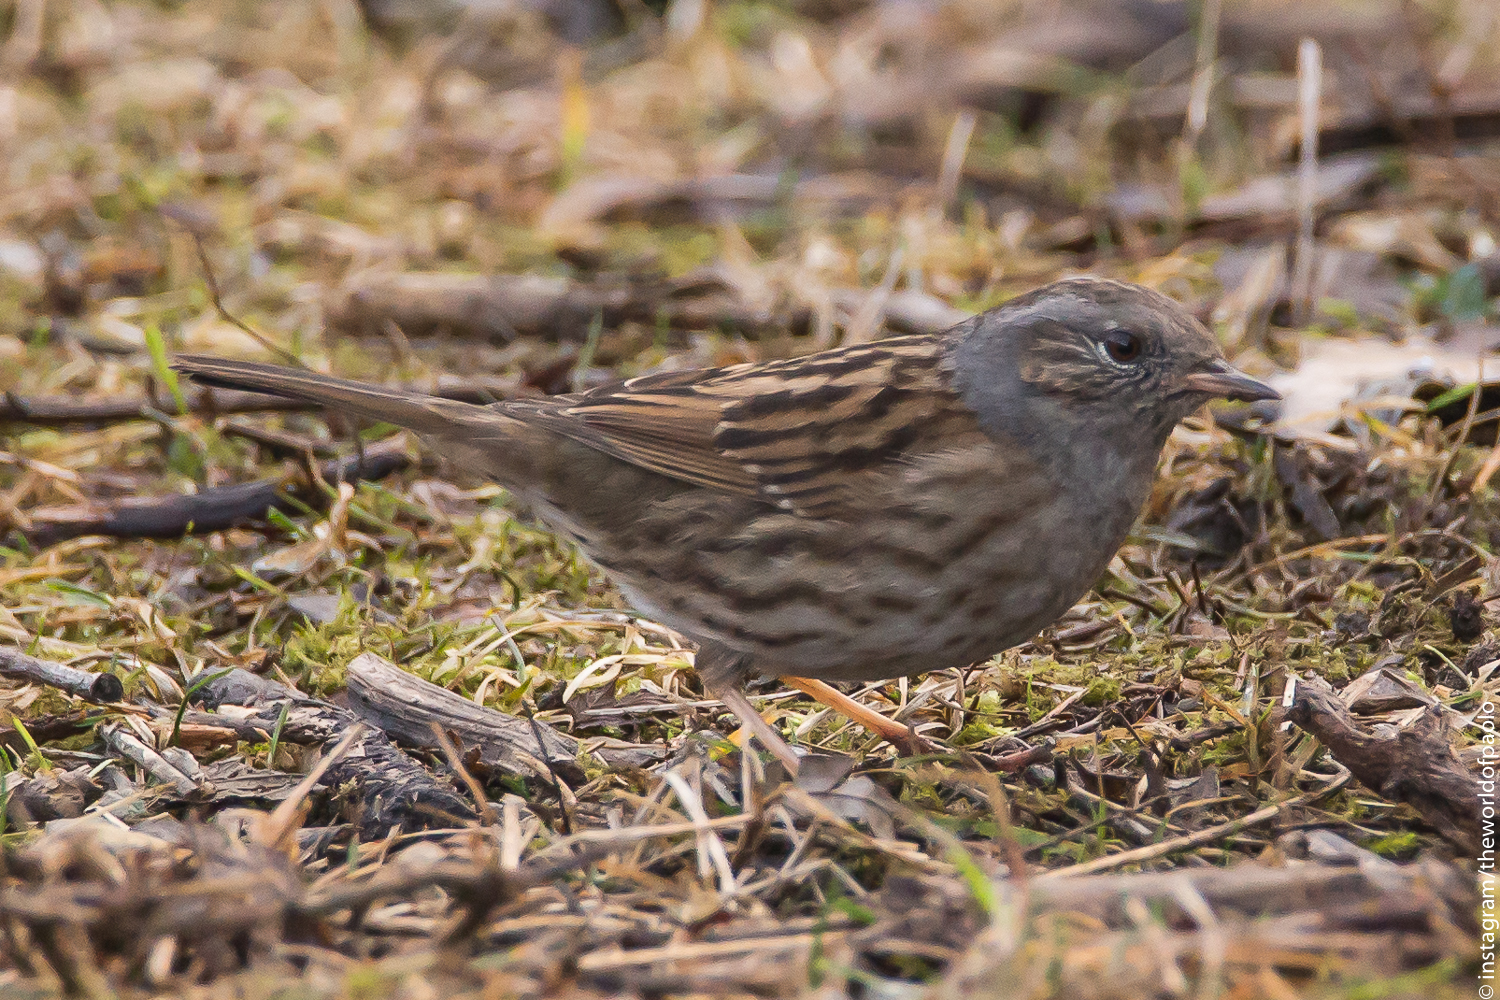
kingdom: Animalia
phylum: Chordata
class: Aves
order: Passeriformes
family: Prunellidae
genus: Prunella
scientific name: Prunella modularis
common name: Dunnock
